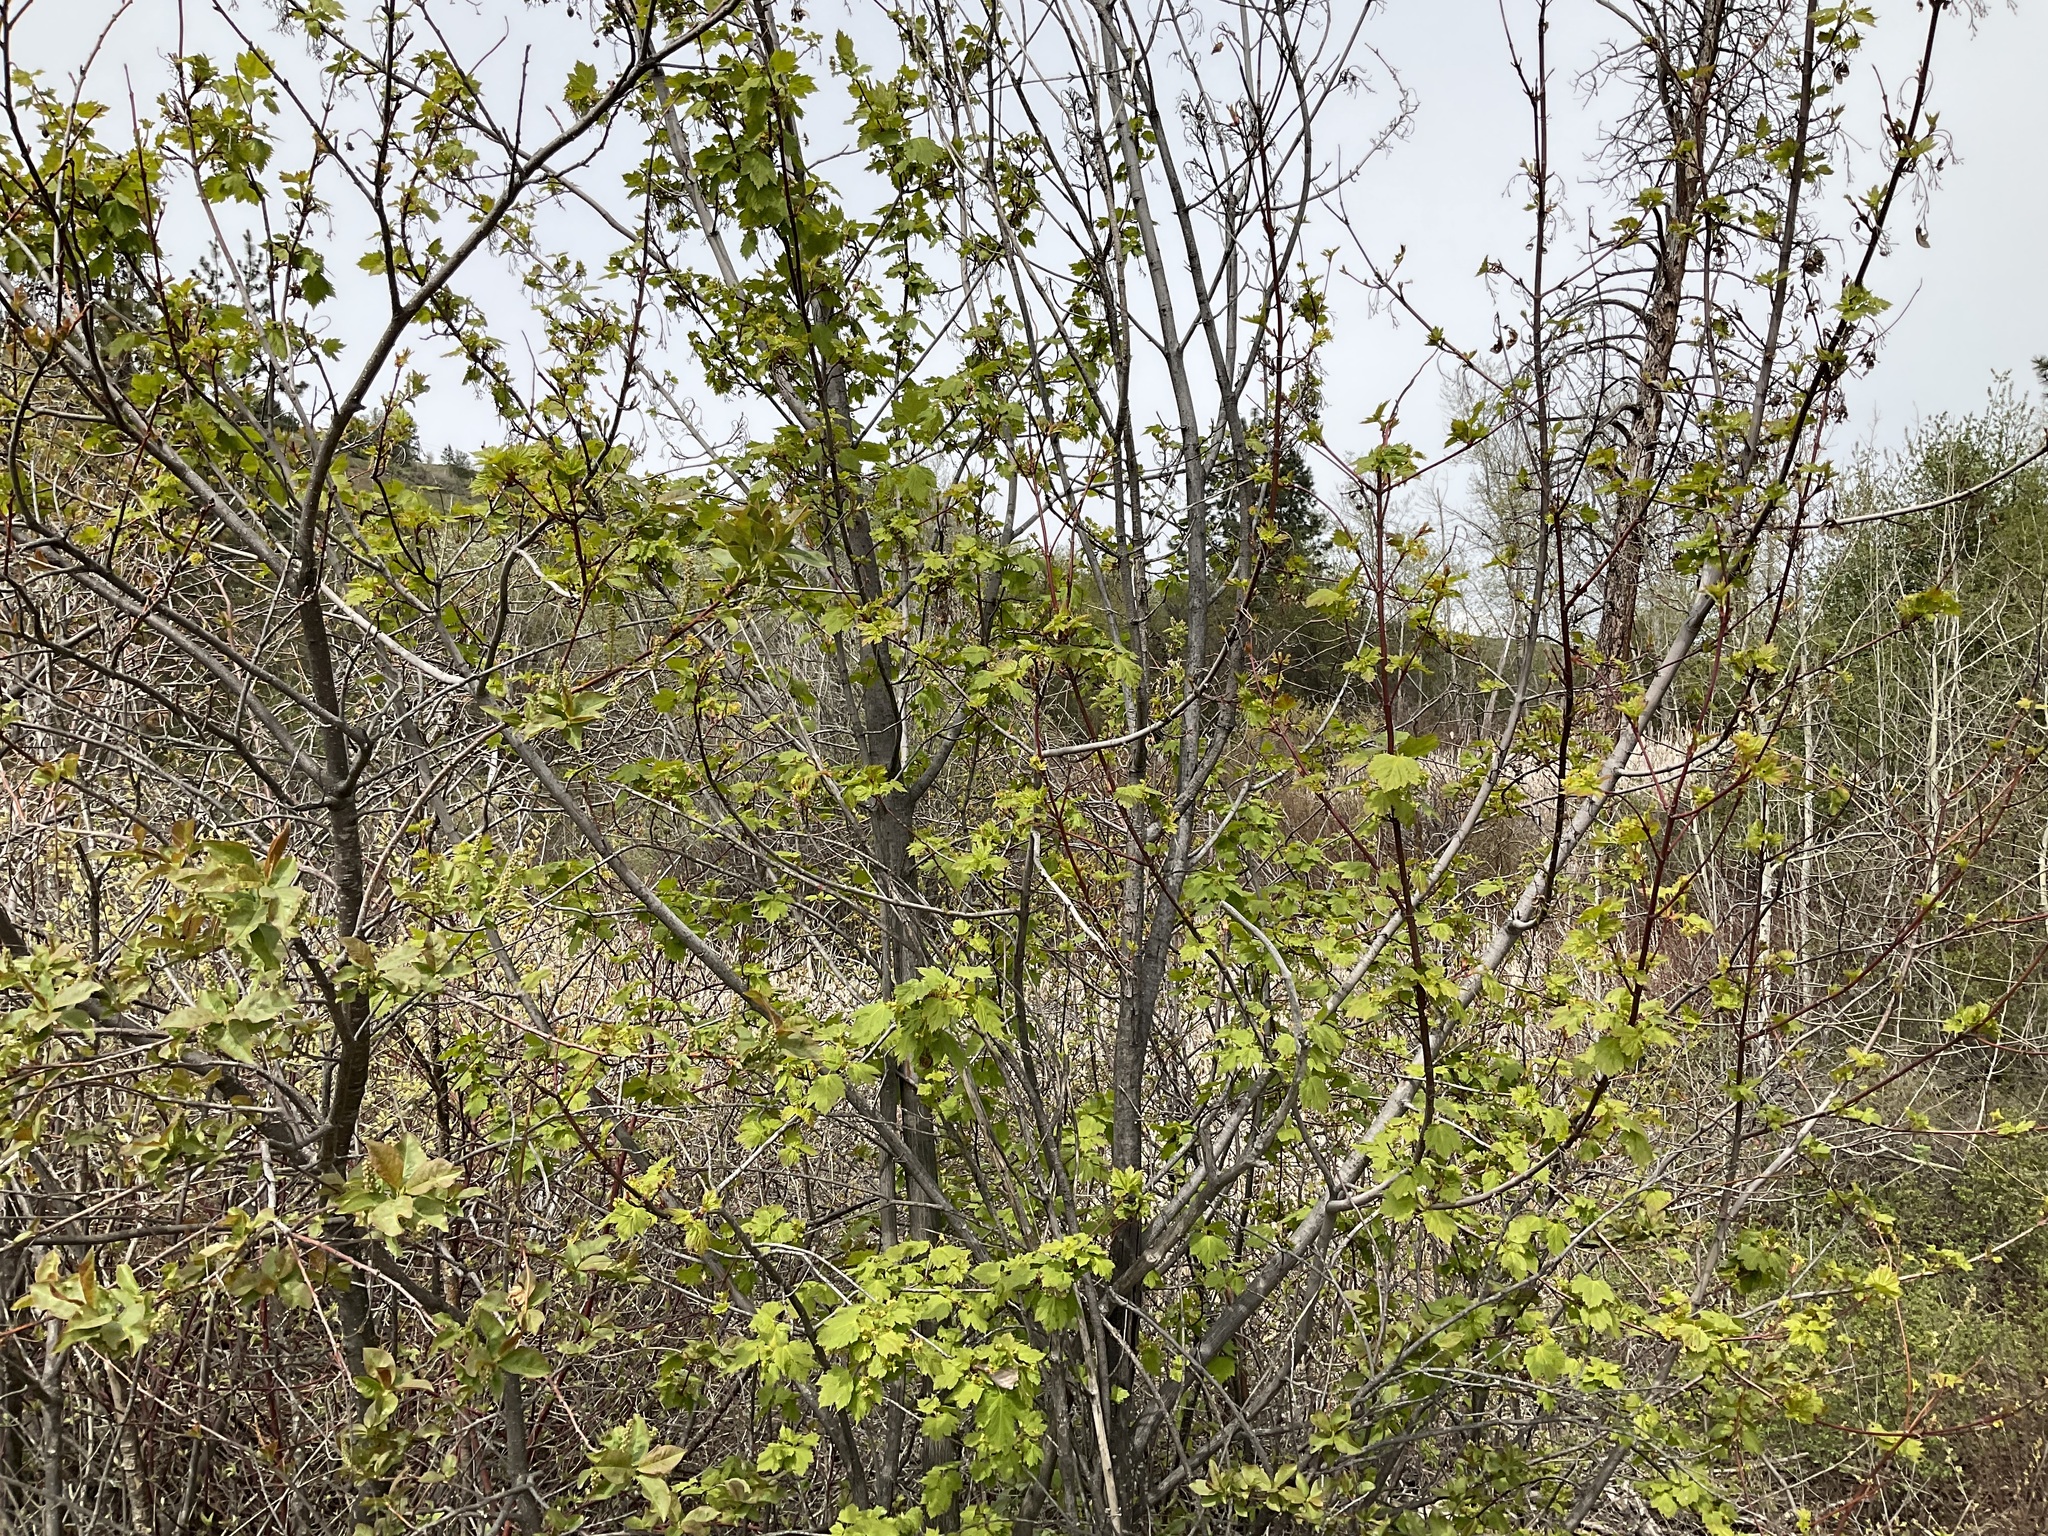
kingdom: Plantae
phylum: Tracheophyta
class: Magnoliopsida
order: Sapindales
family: Sapindaceae
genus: Acer
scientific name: Acer glabrum
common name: Rocky mountain maple
